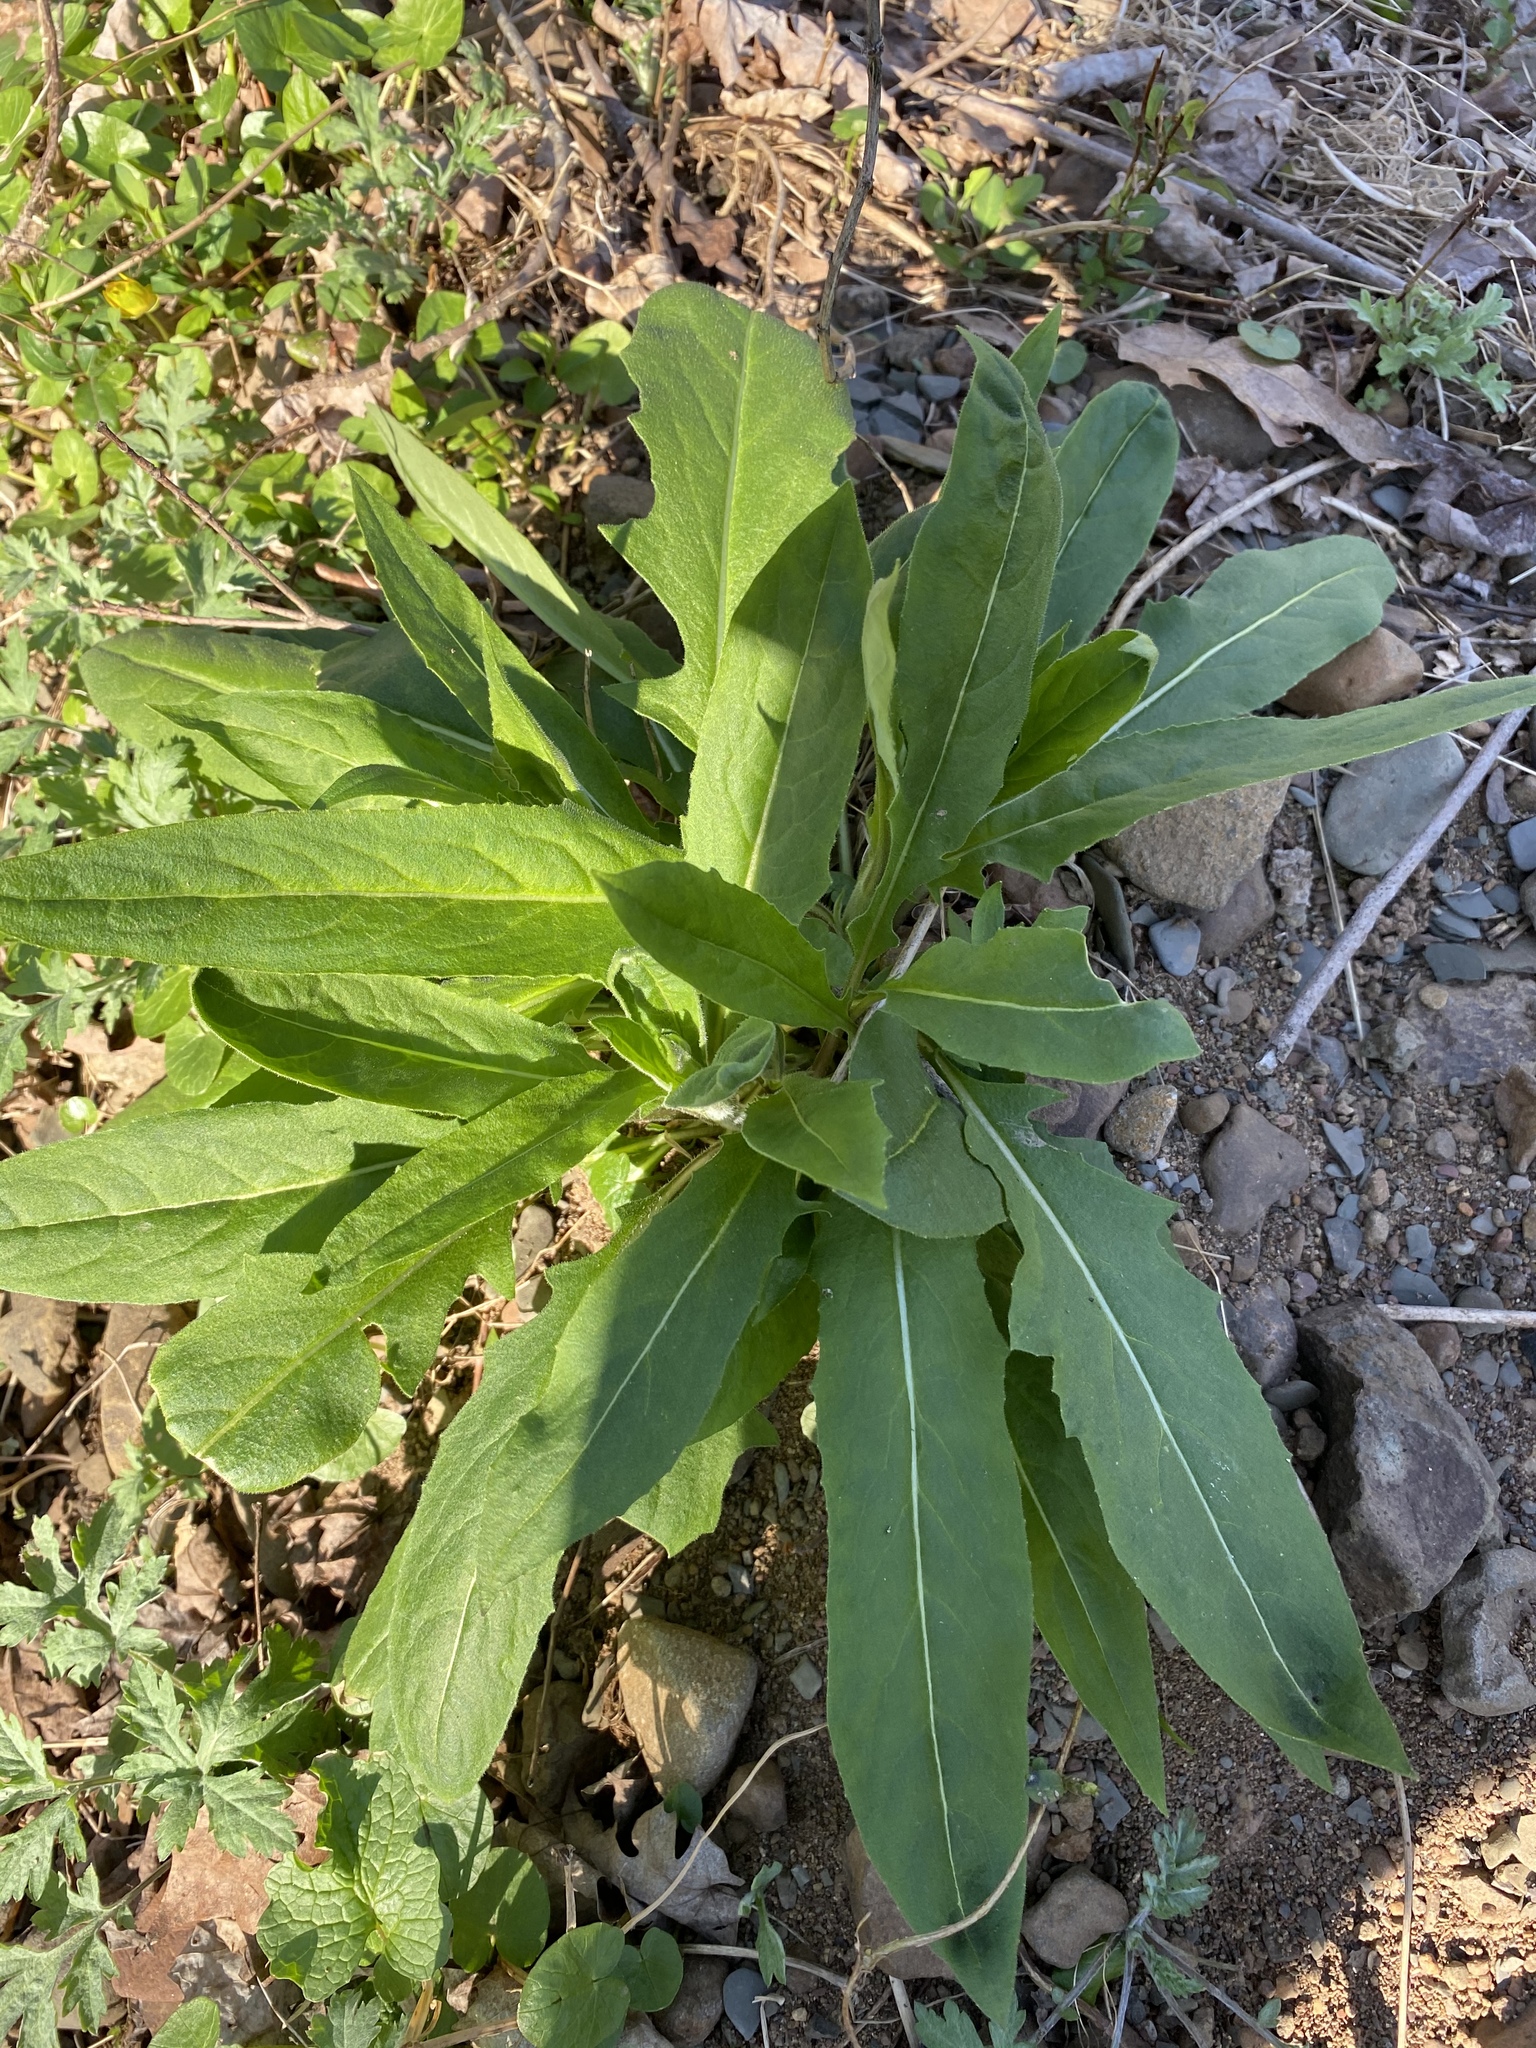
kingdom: Plantae
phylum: Tracheophyta
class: Magnoliopsida
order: Brassicales
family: Brassicaceae
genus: Hesperis
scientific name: Hesperis matronalis
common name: Dame's-violet
